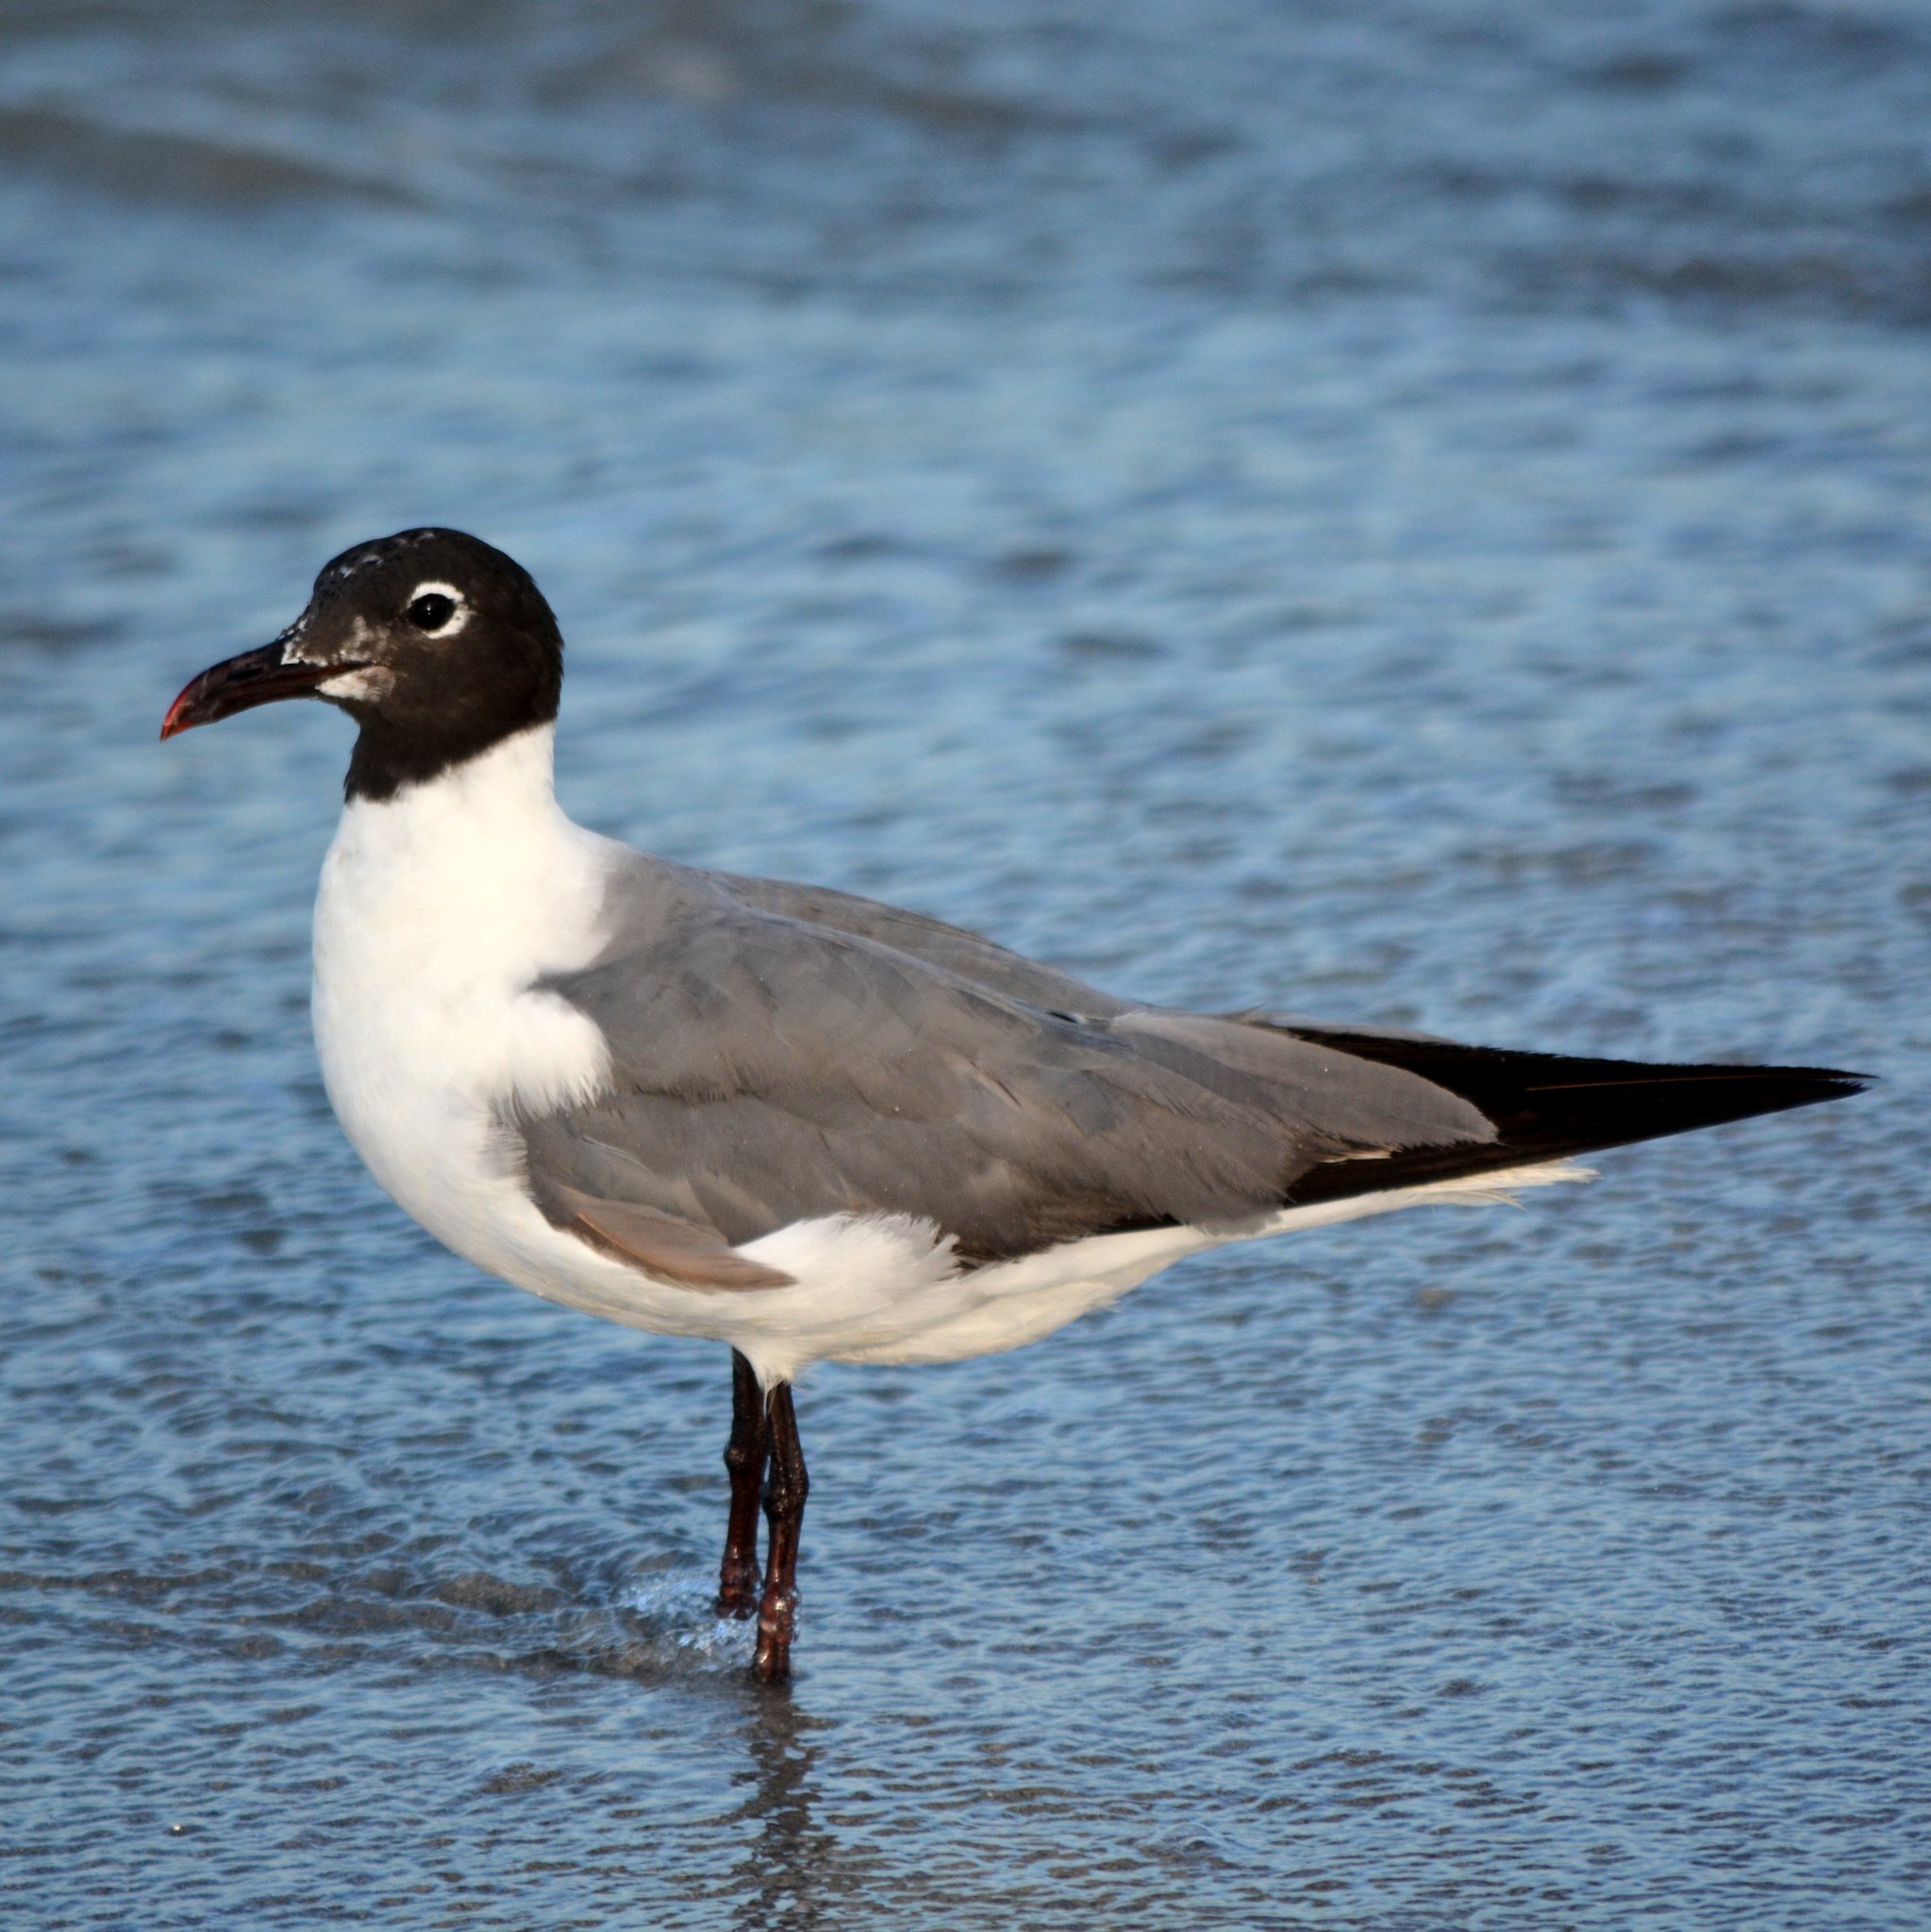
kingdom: Animalia
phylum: Chordata
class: Aves
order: Charadriiformes
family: Laridae
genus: Leucophaeus
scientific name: Leucophaeus atricilla
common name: Laughing gull
